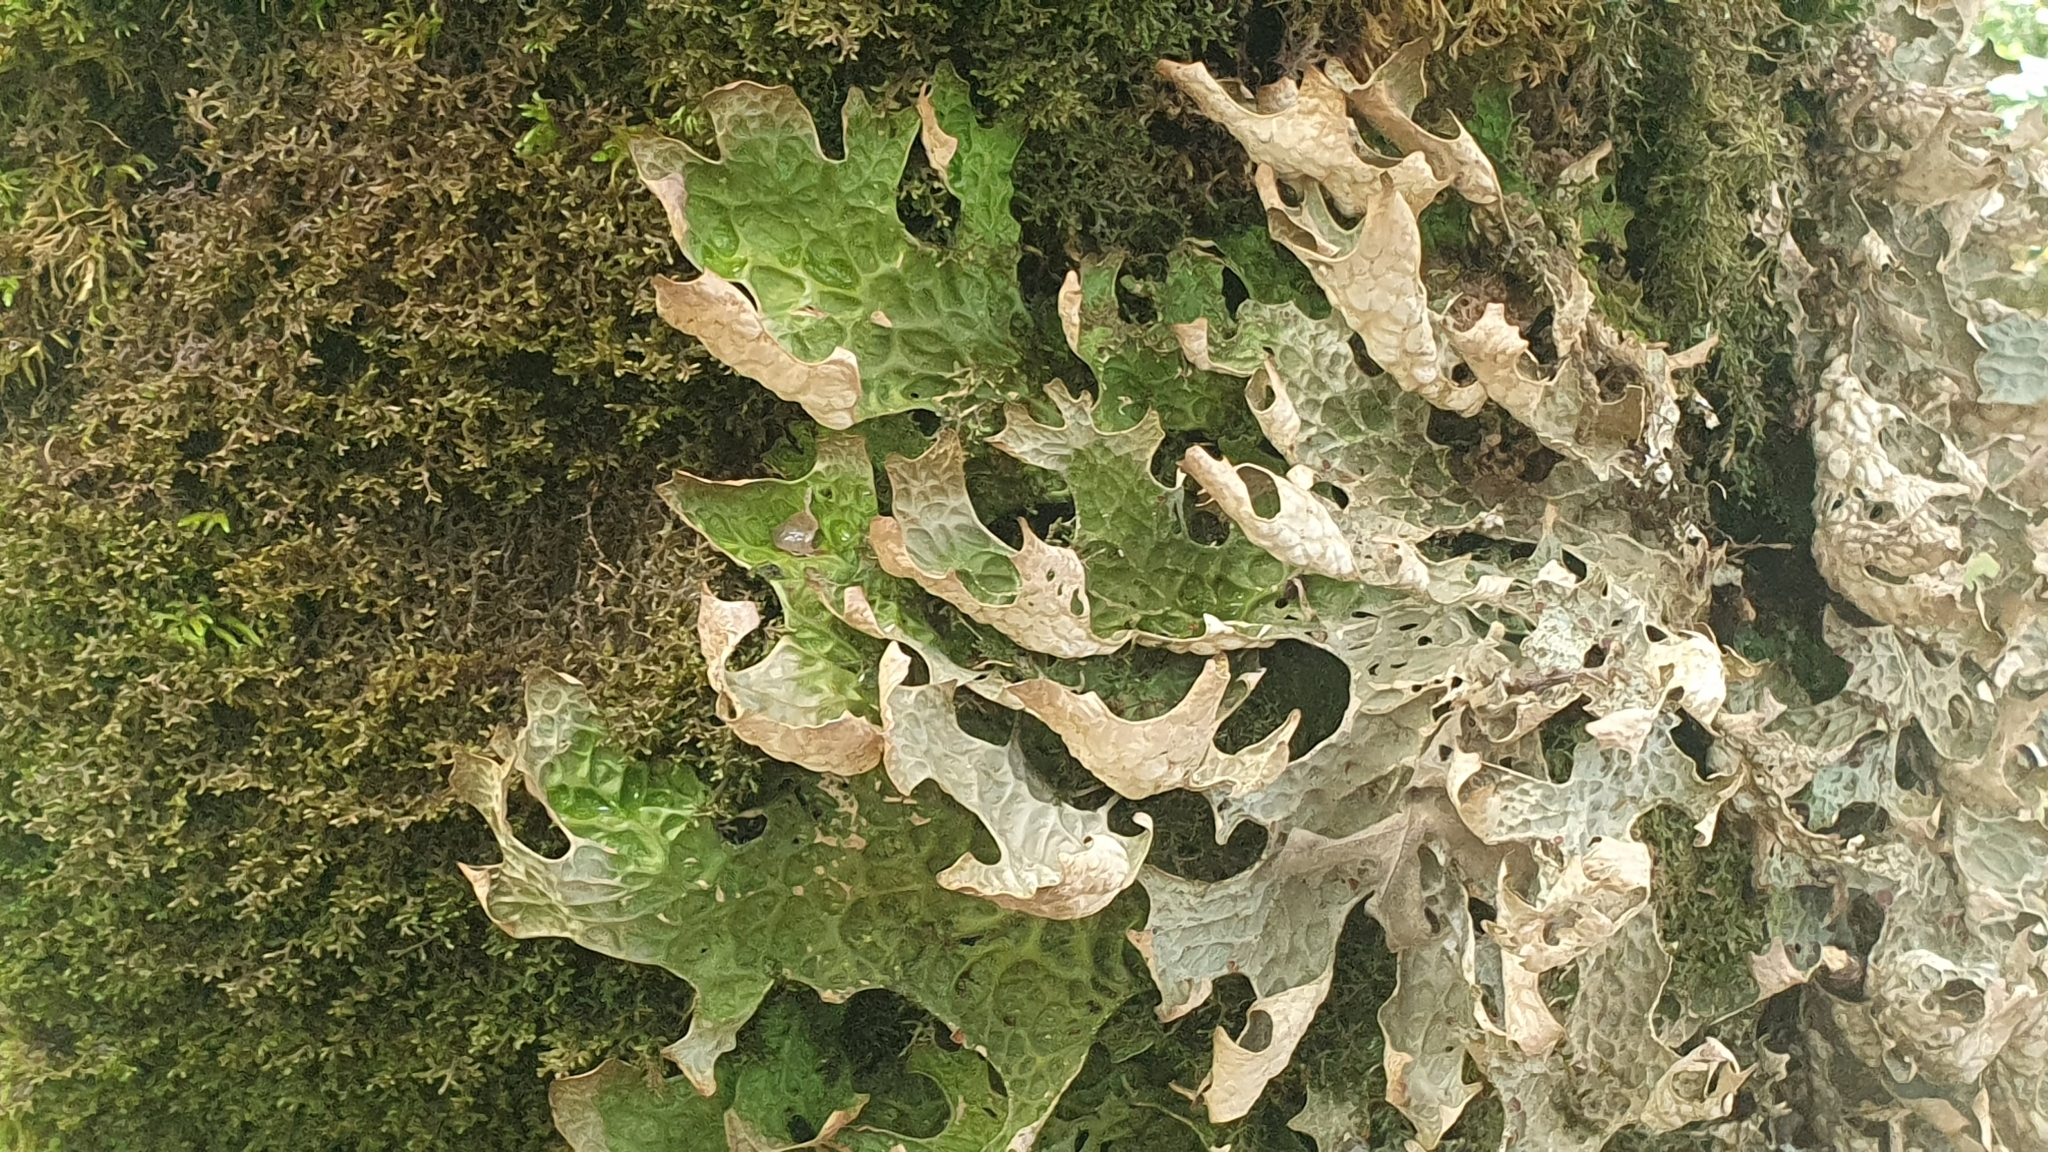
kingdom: Fungi
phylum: Ascomycota
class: Lecanoromycetes
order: Peltigerales
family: Lobariaceae
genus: Lobaria
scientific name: Lobaria pulmonaria
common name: Lungwort
